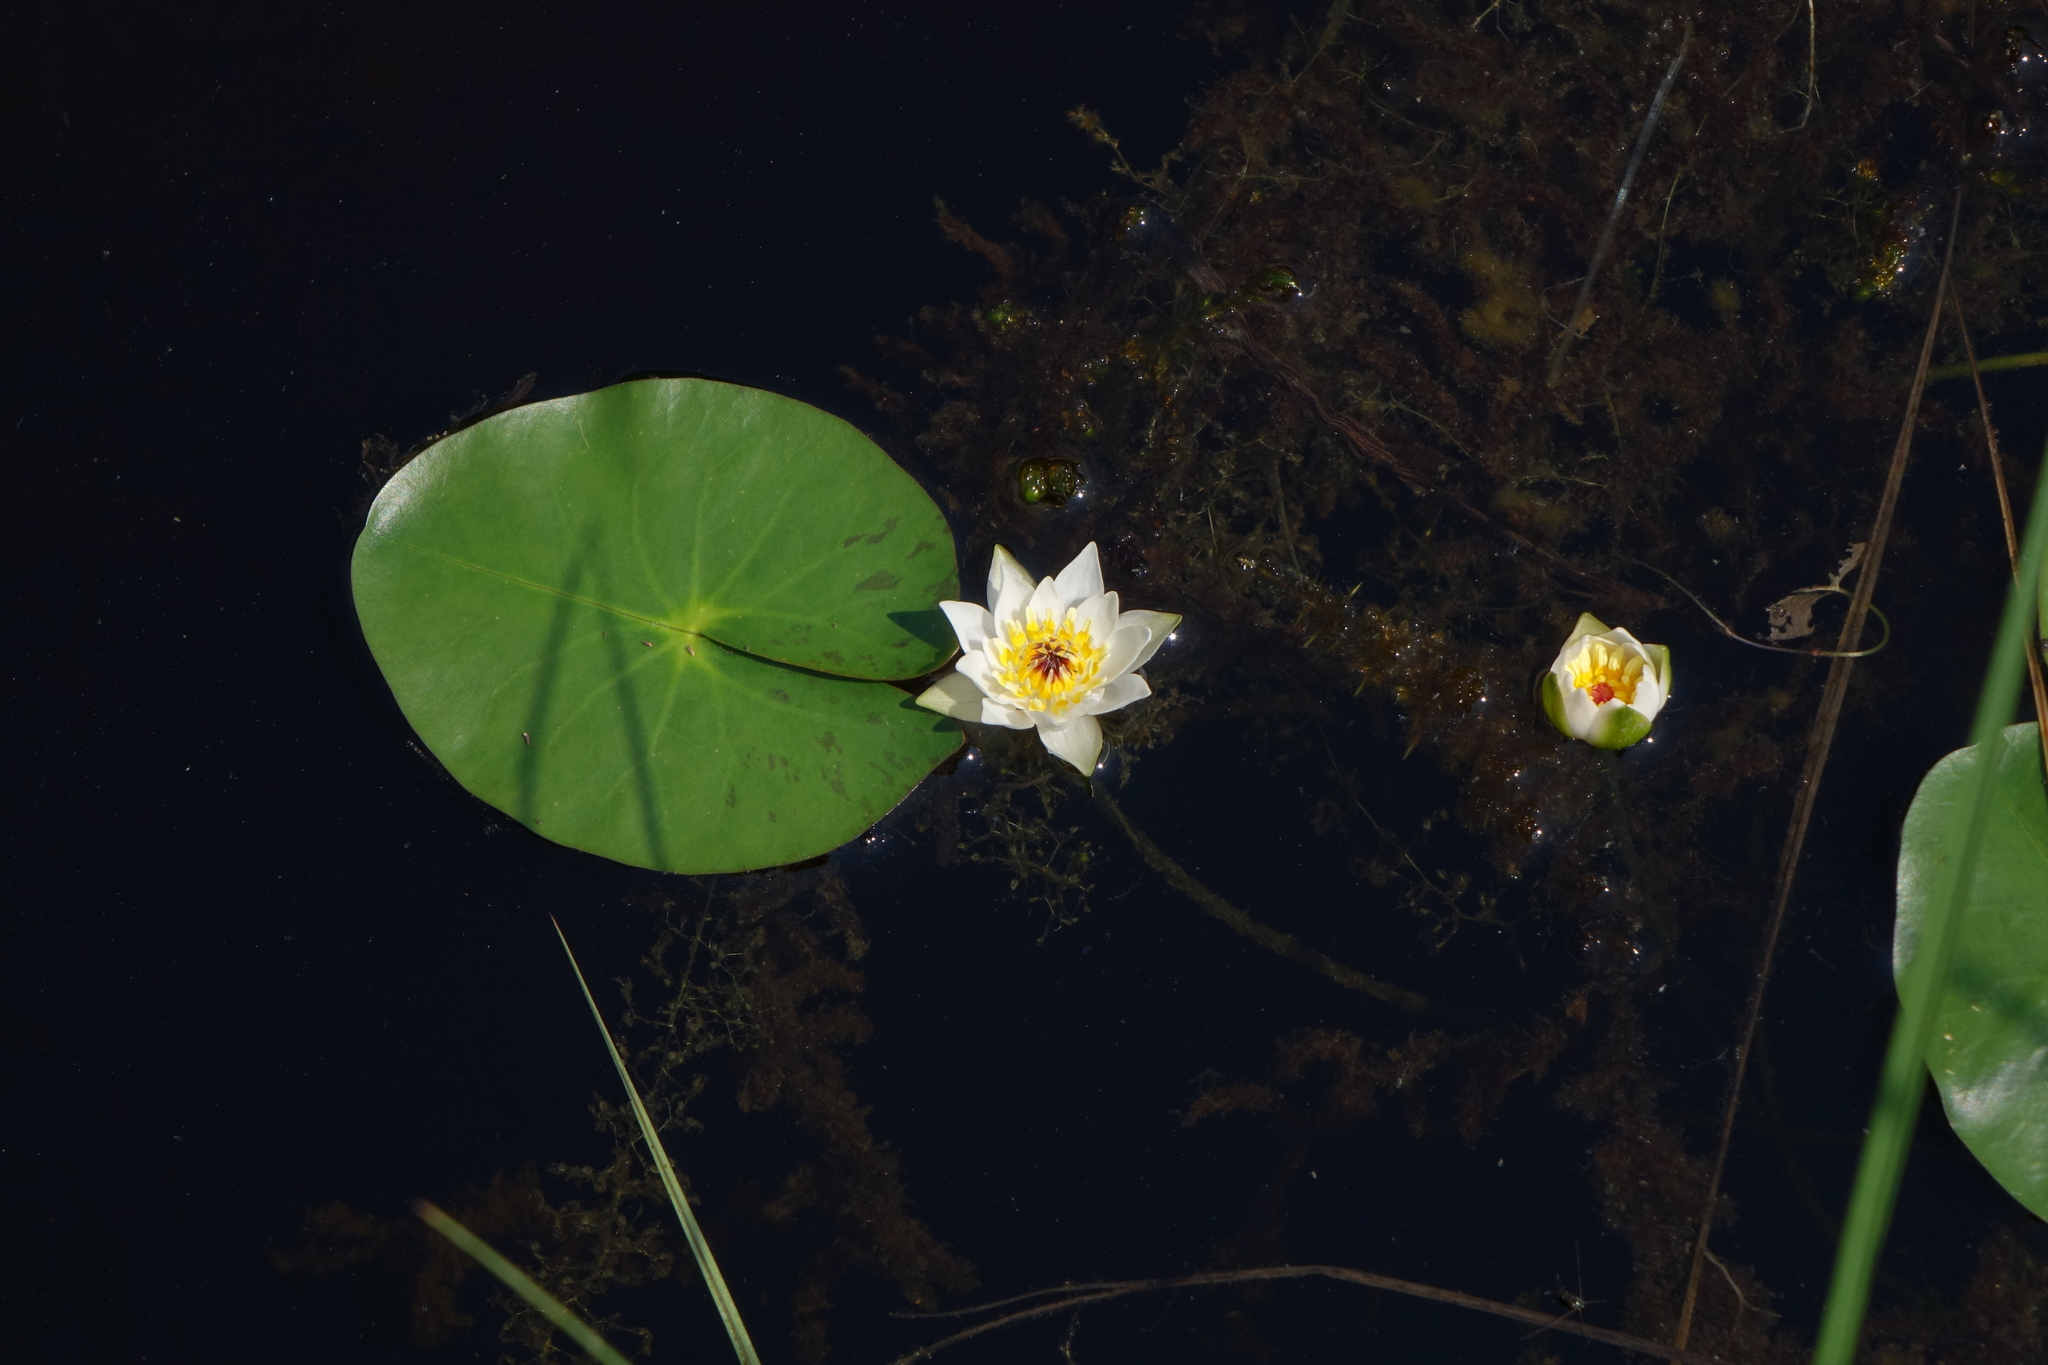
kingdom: Plantae
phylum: Tracheophyta
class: Magnoliopsida
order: Nymphaeales
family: Nymphaeaceae
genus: Nymphaea
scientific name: Nymphaea tetragona
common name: Pygmy water-lily
